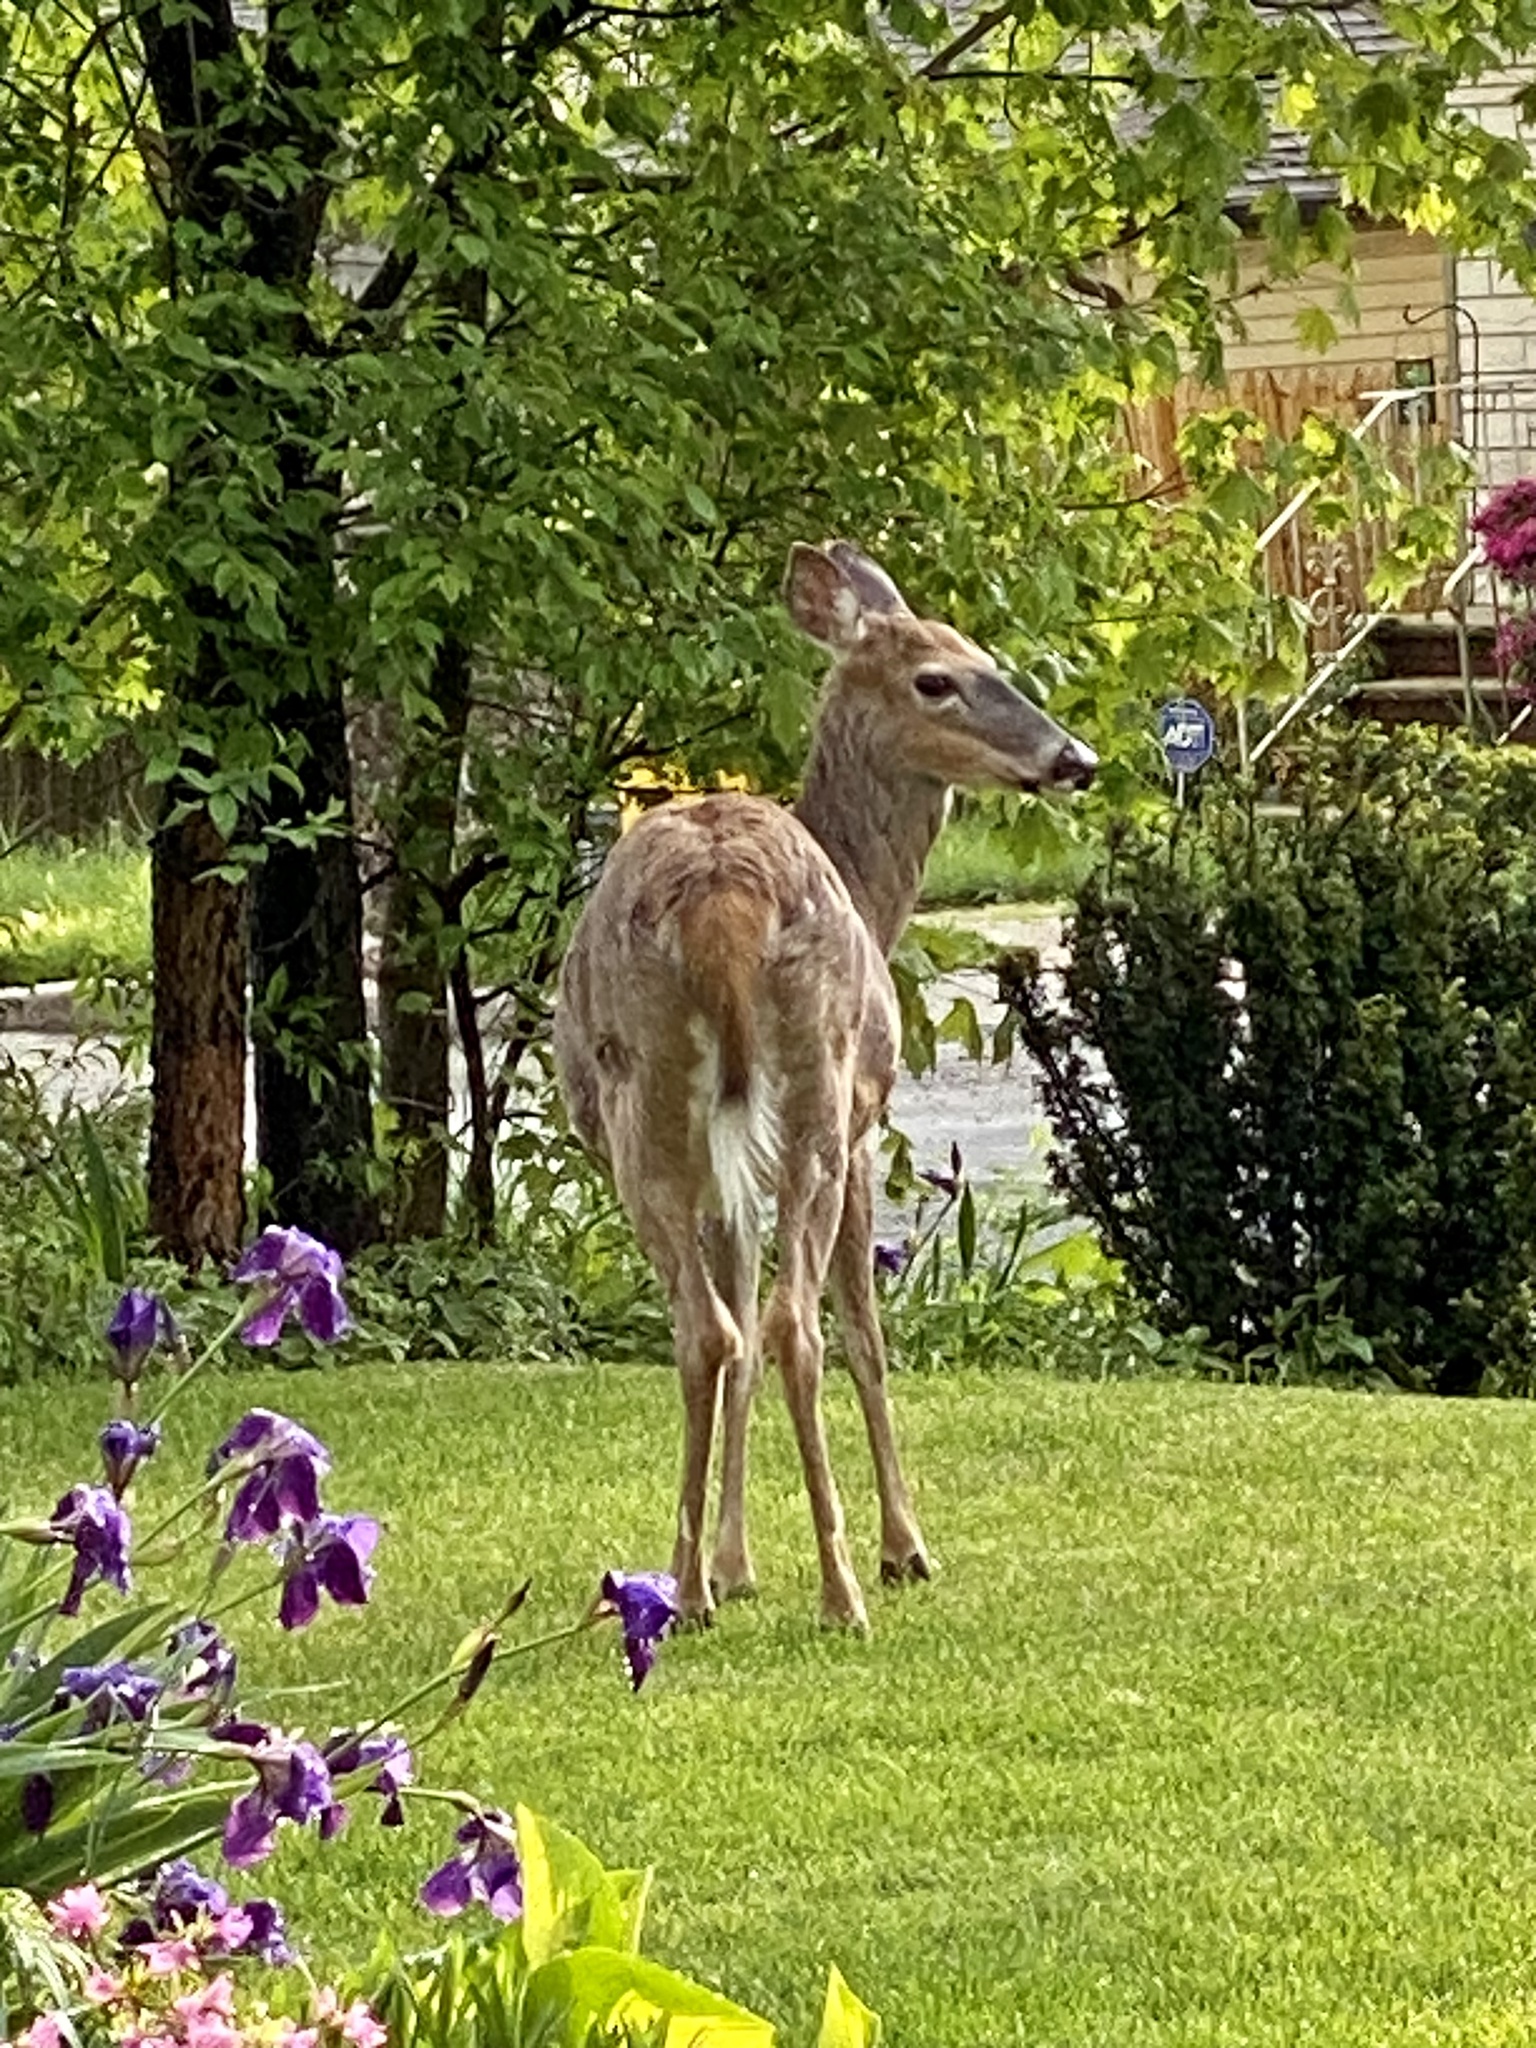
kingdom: Animalia
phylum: Chordata
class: Mammalia
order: Artiodactyla
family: Cervidae
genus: Odocoileus
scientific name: Odocoileus virginianus
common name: White-tailed deer
